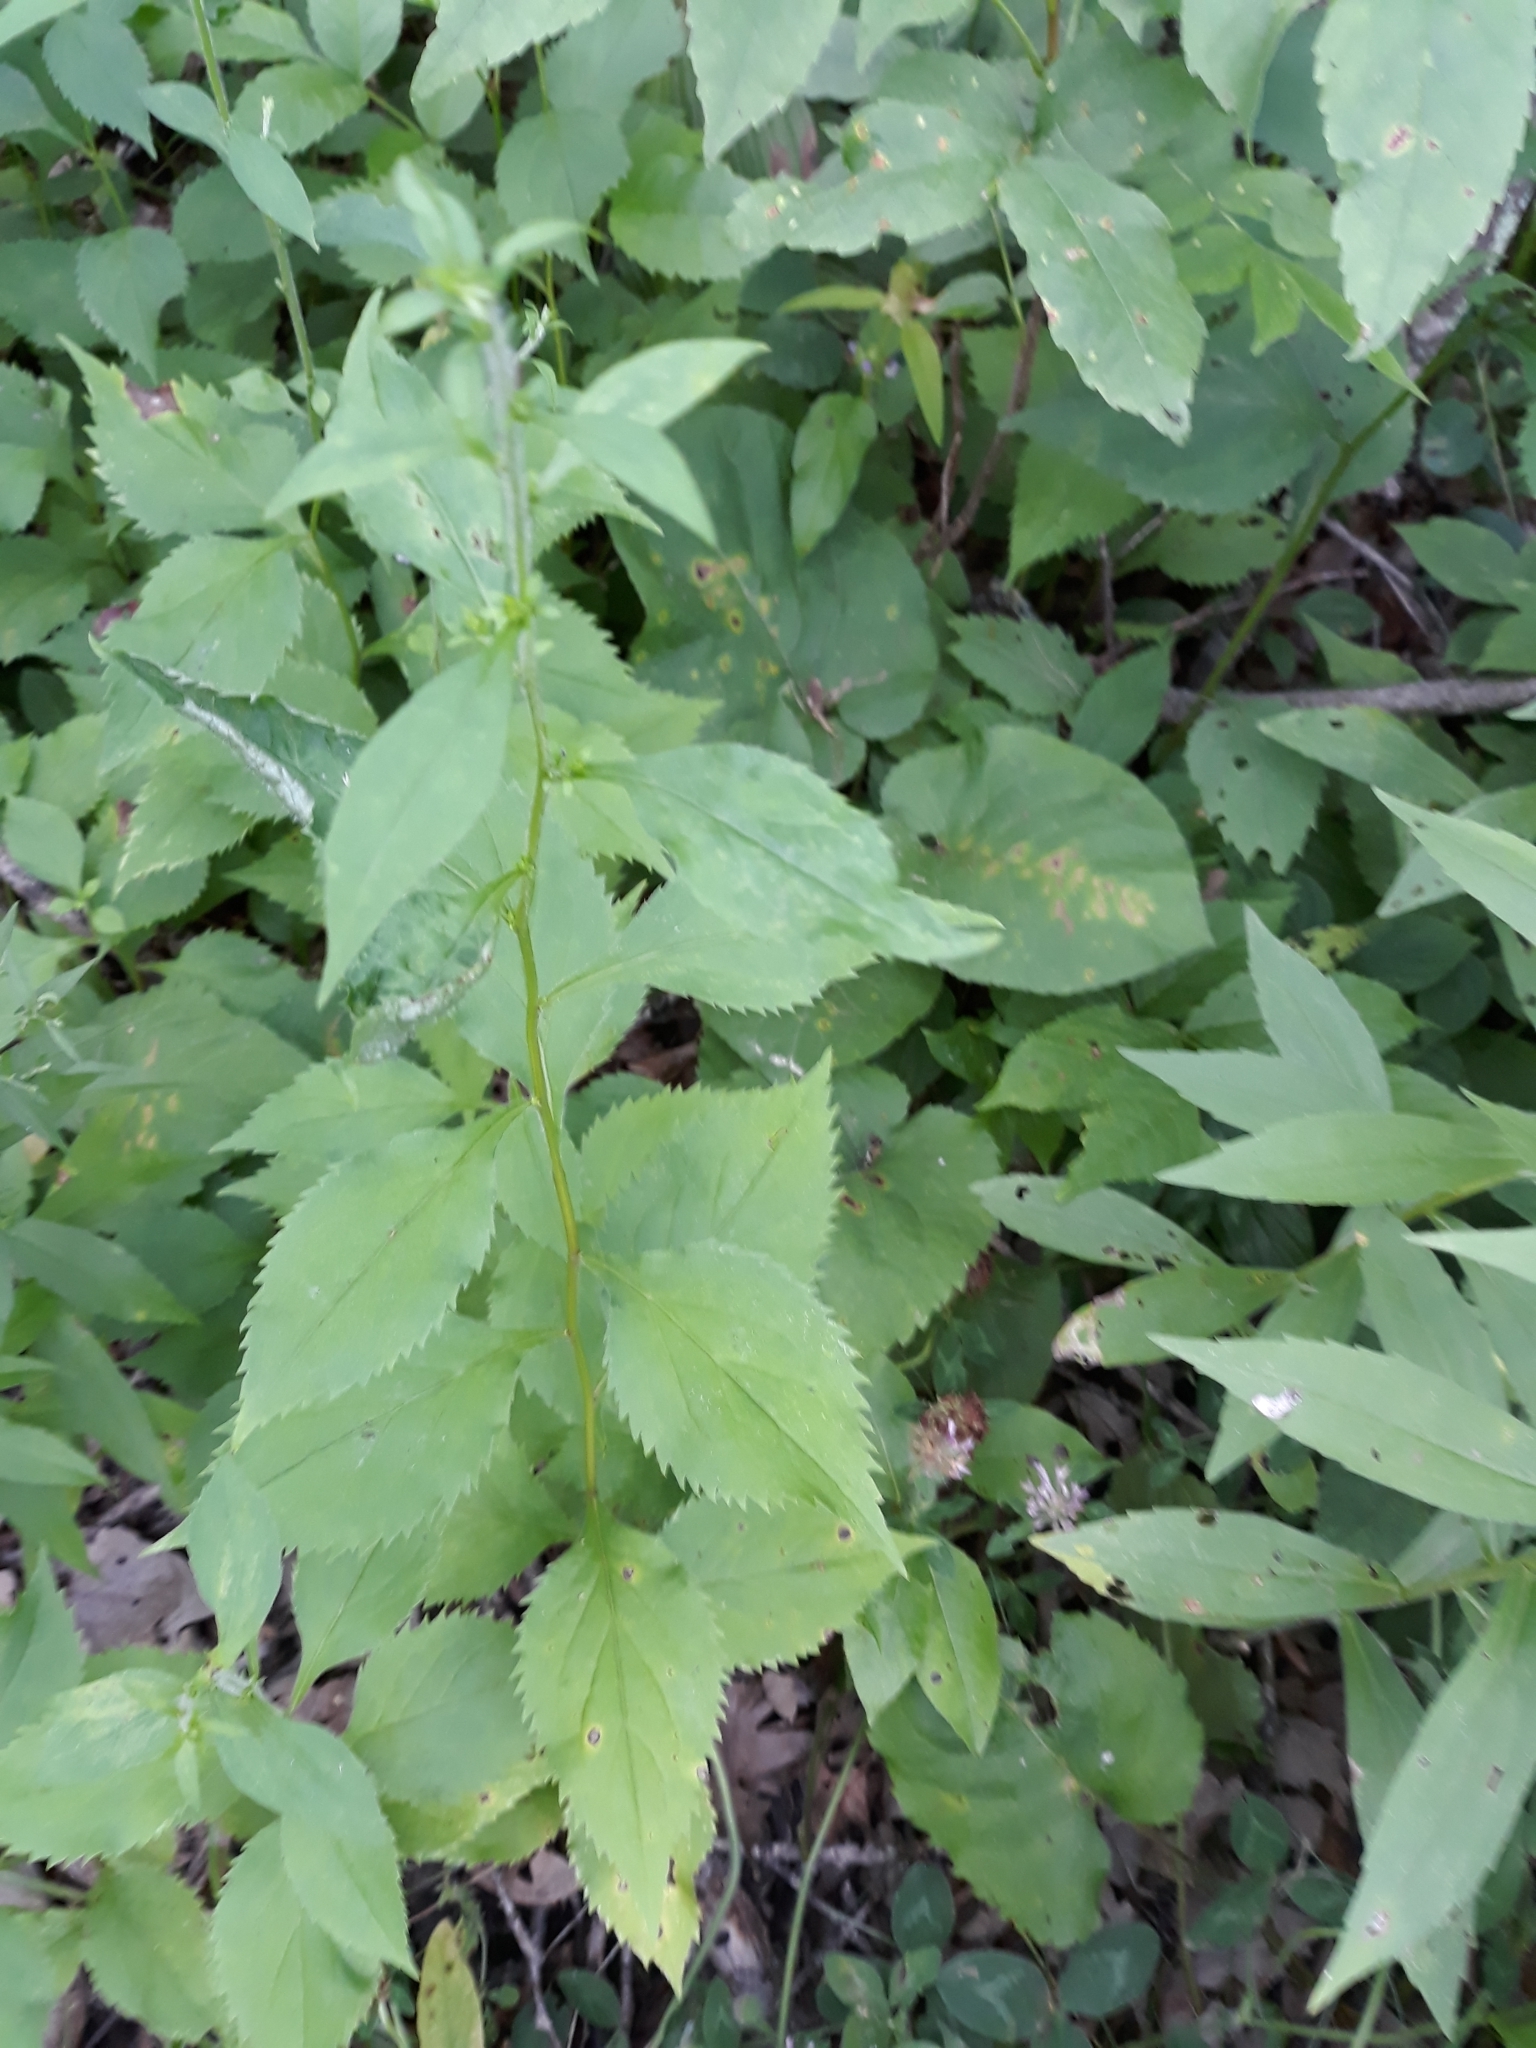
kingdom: Plantae
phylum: Tracheophyta
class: Magnoliopsida
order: Asterales
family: Asteraceae
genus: Solidago
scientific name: Solidago flexicaulis
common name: Zig-zag goldenrod
